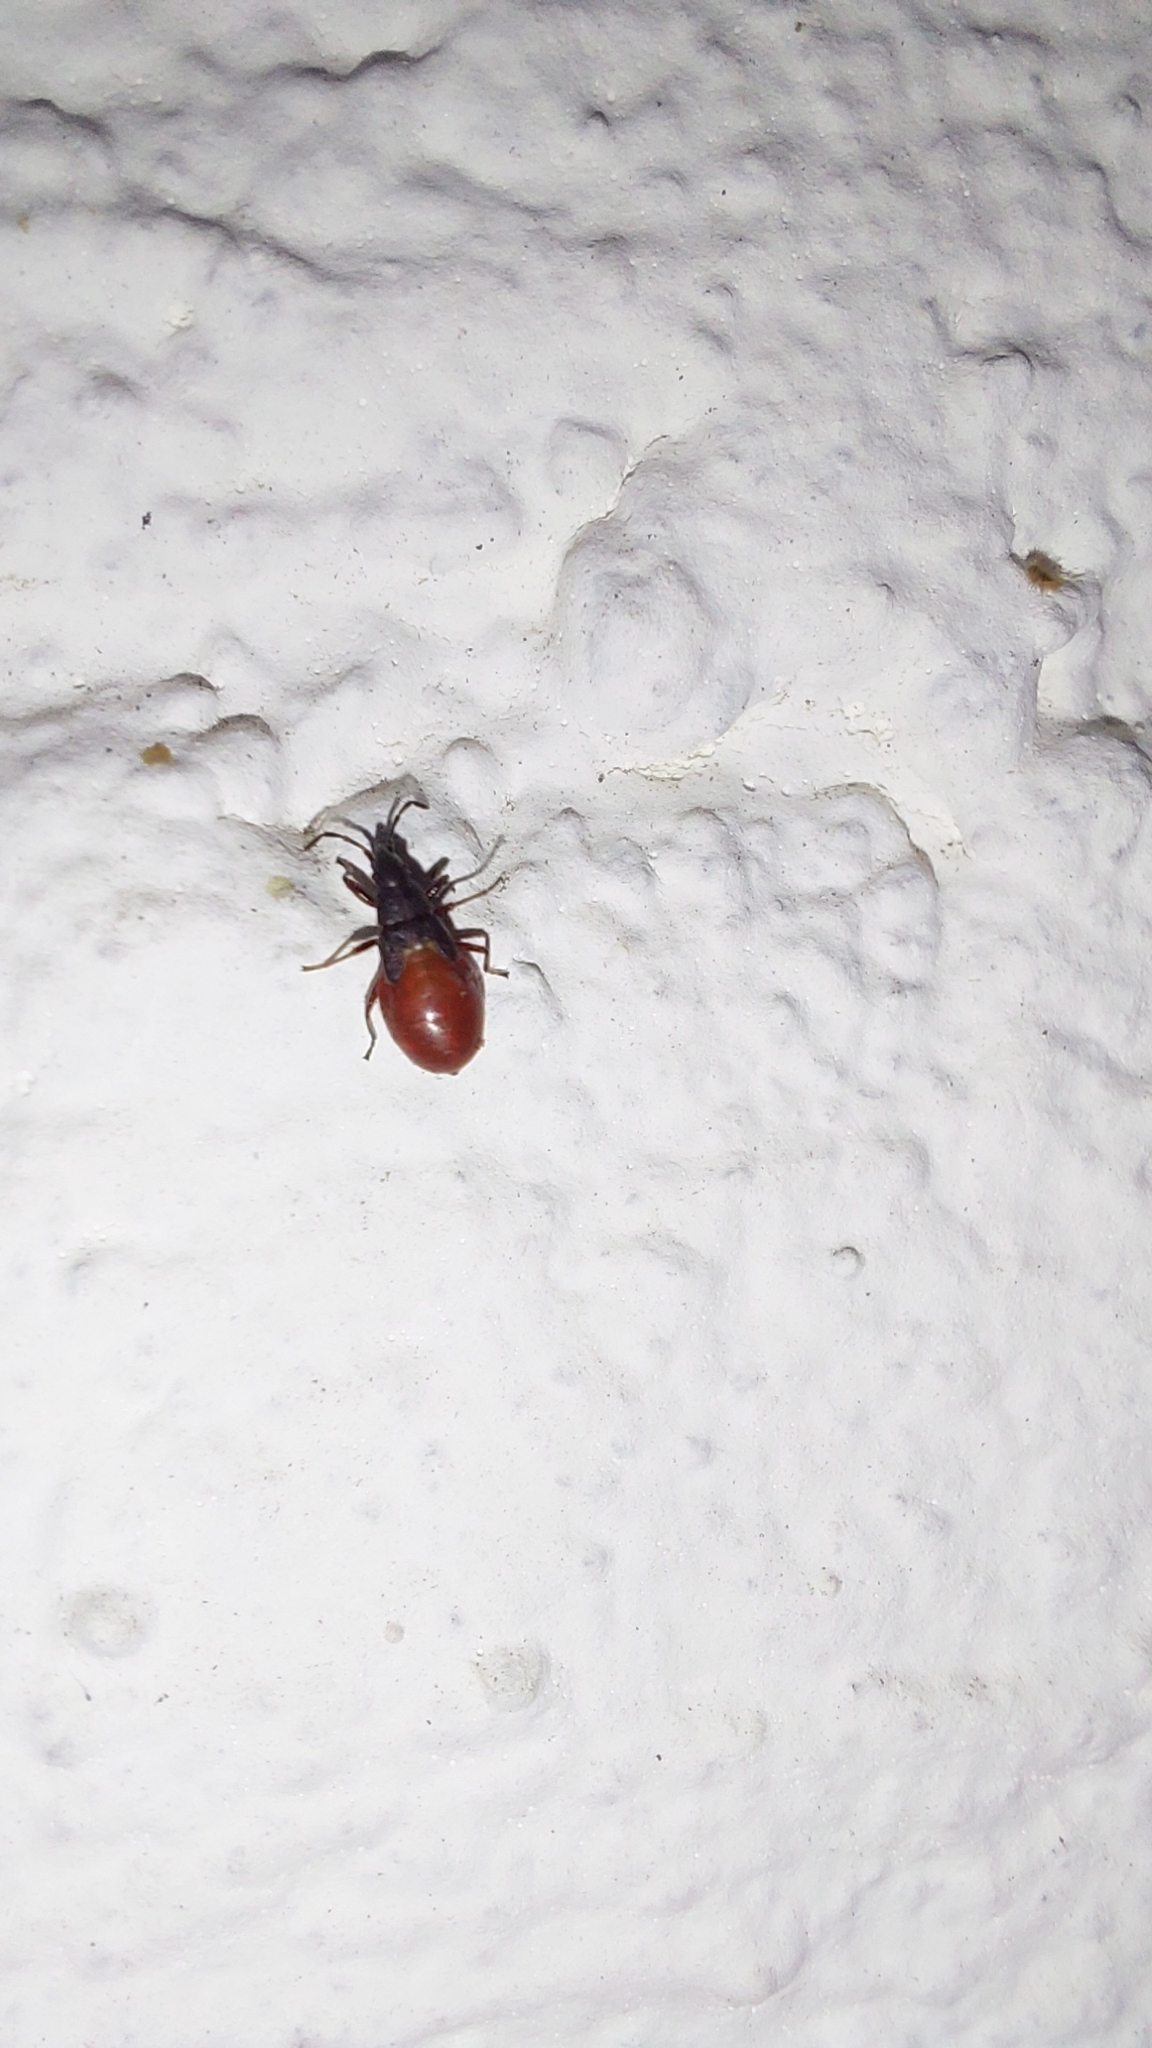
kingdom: Animalia
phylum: Arthropoda
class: Insecta
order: Hemiptera
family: Oxycarenidae
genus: Oxycarenus
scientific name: Oxycarenus lavaterae
